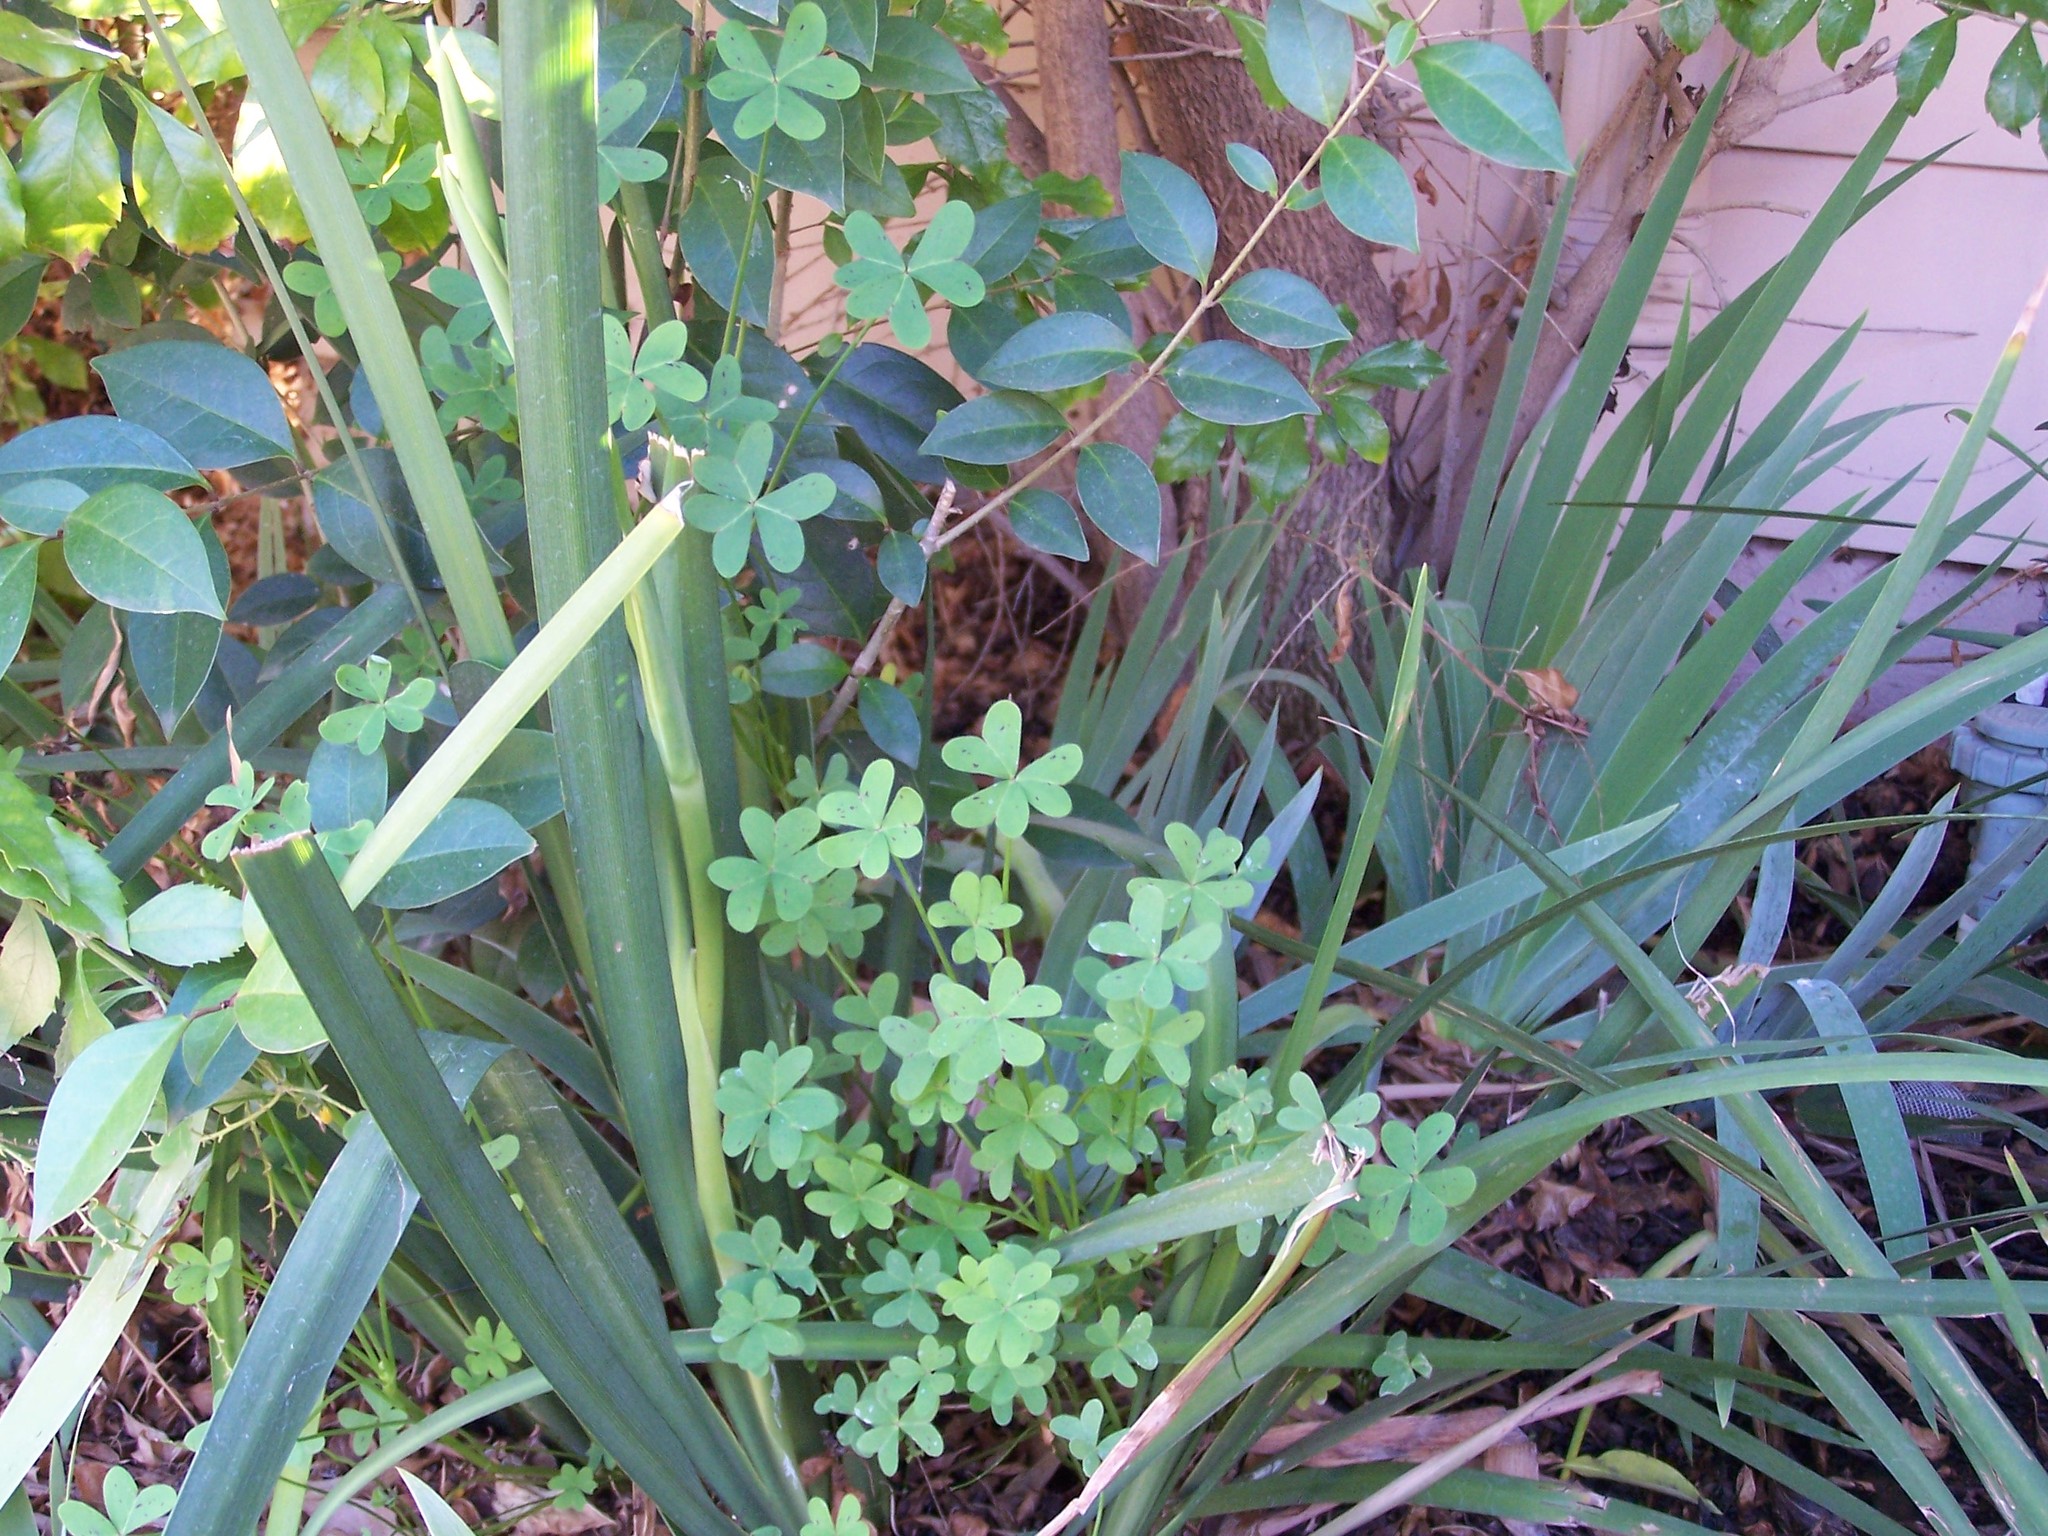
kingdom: Plantae
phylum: Tracheophyta
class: Magnoliopsida
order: Oxalidales
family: Oxalidaceae
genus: Oxalis
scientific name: Oxalis pes-caprae
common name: Bermuda-buttercup
